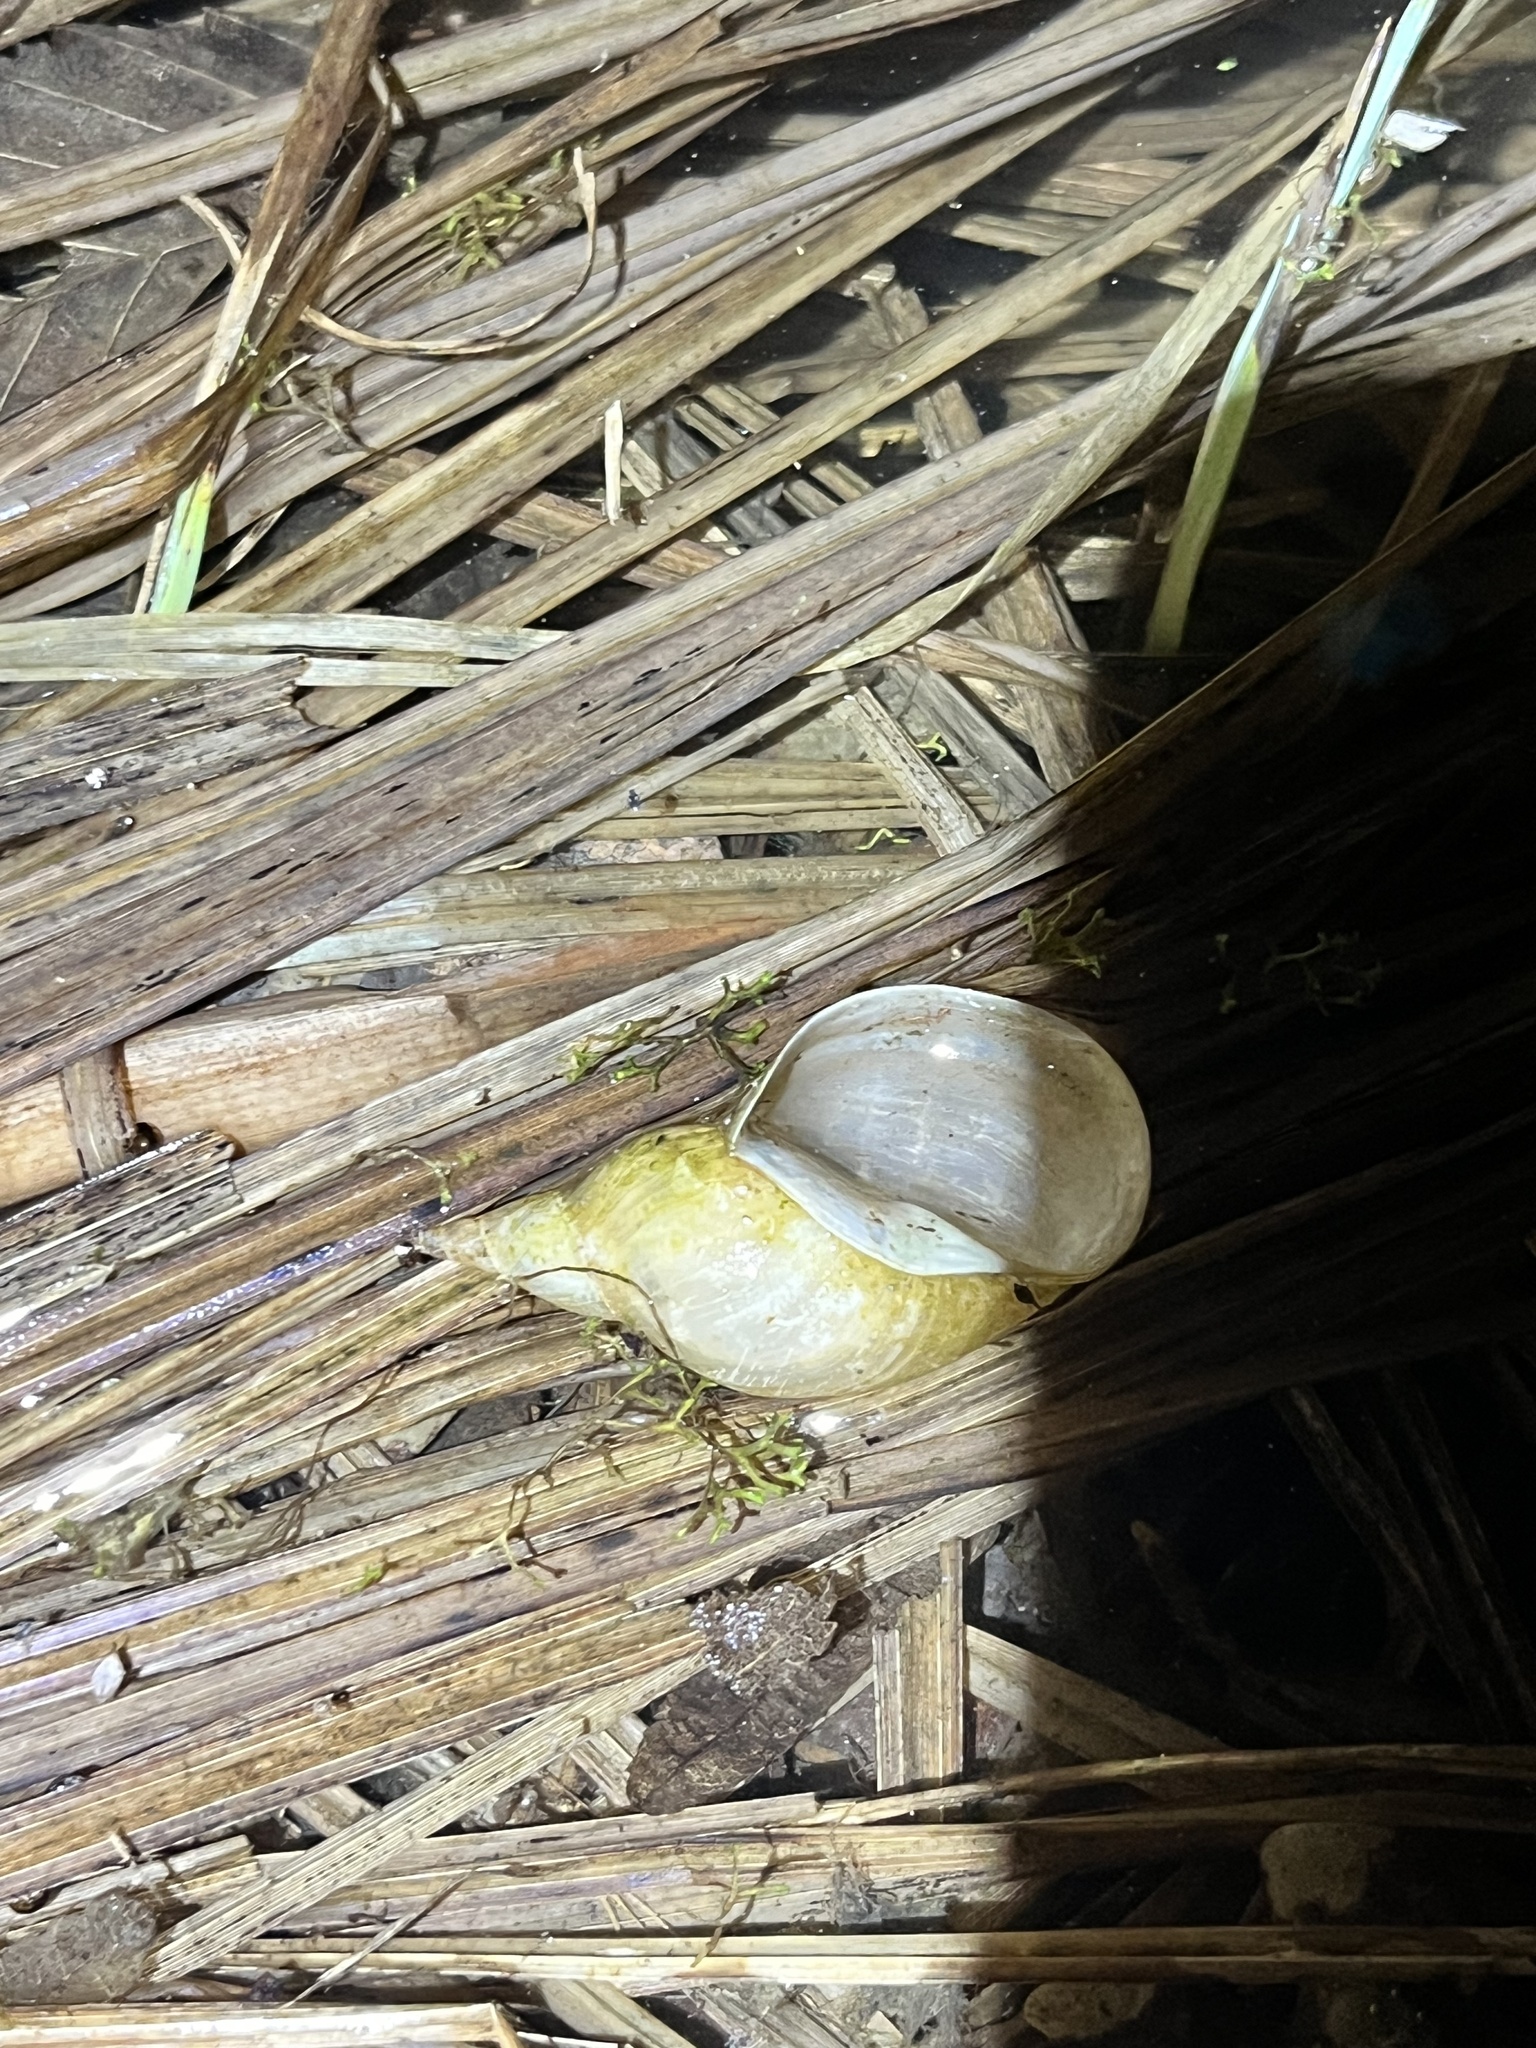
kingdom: Animalia
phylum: Mollusca
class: Gastropoda
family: Lymnaeidae
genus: Lymnaea
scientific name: Lymnaea stagnalis
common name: Great pond snail
